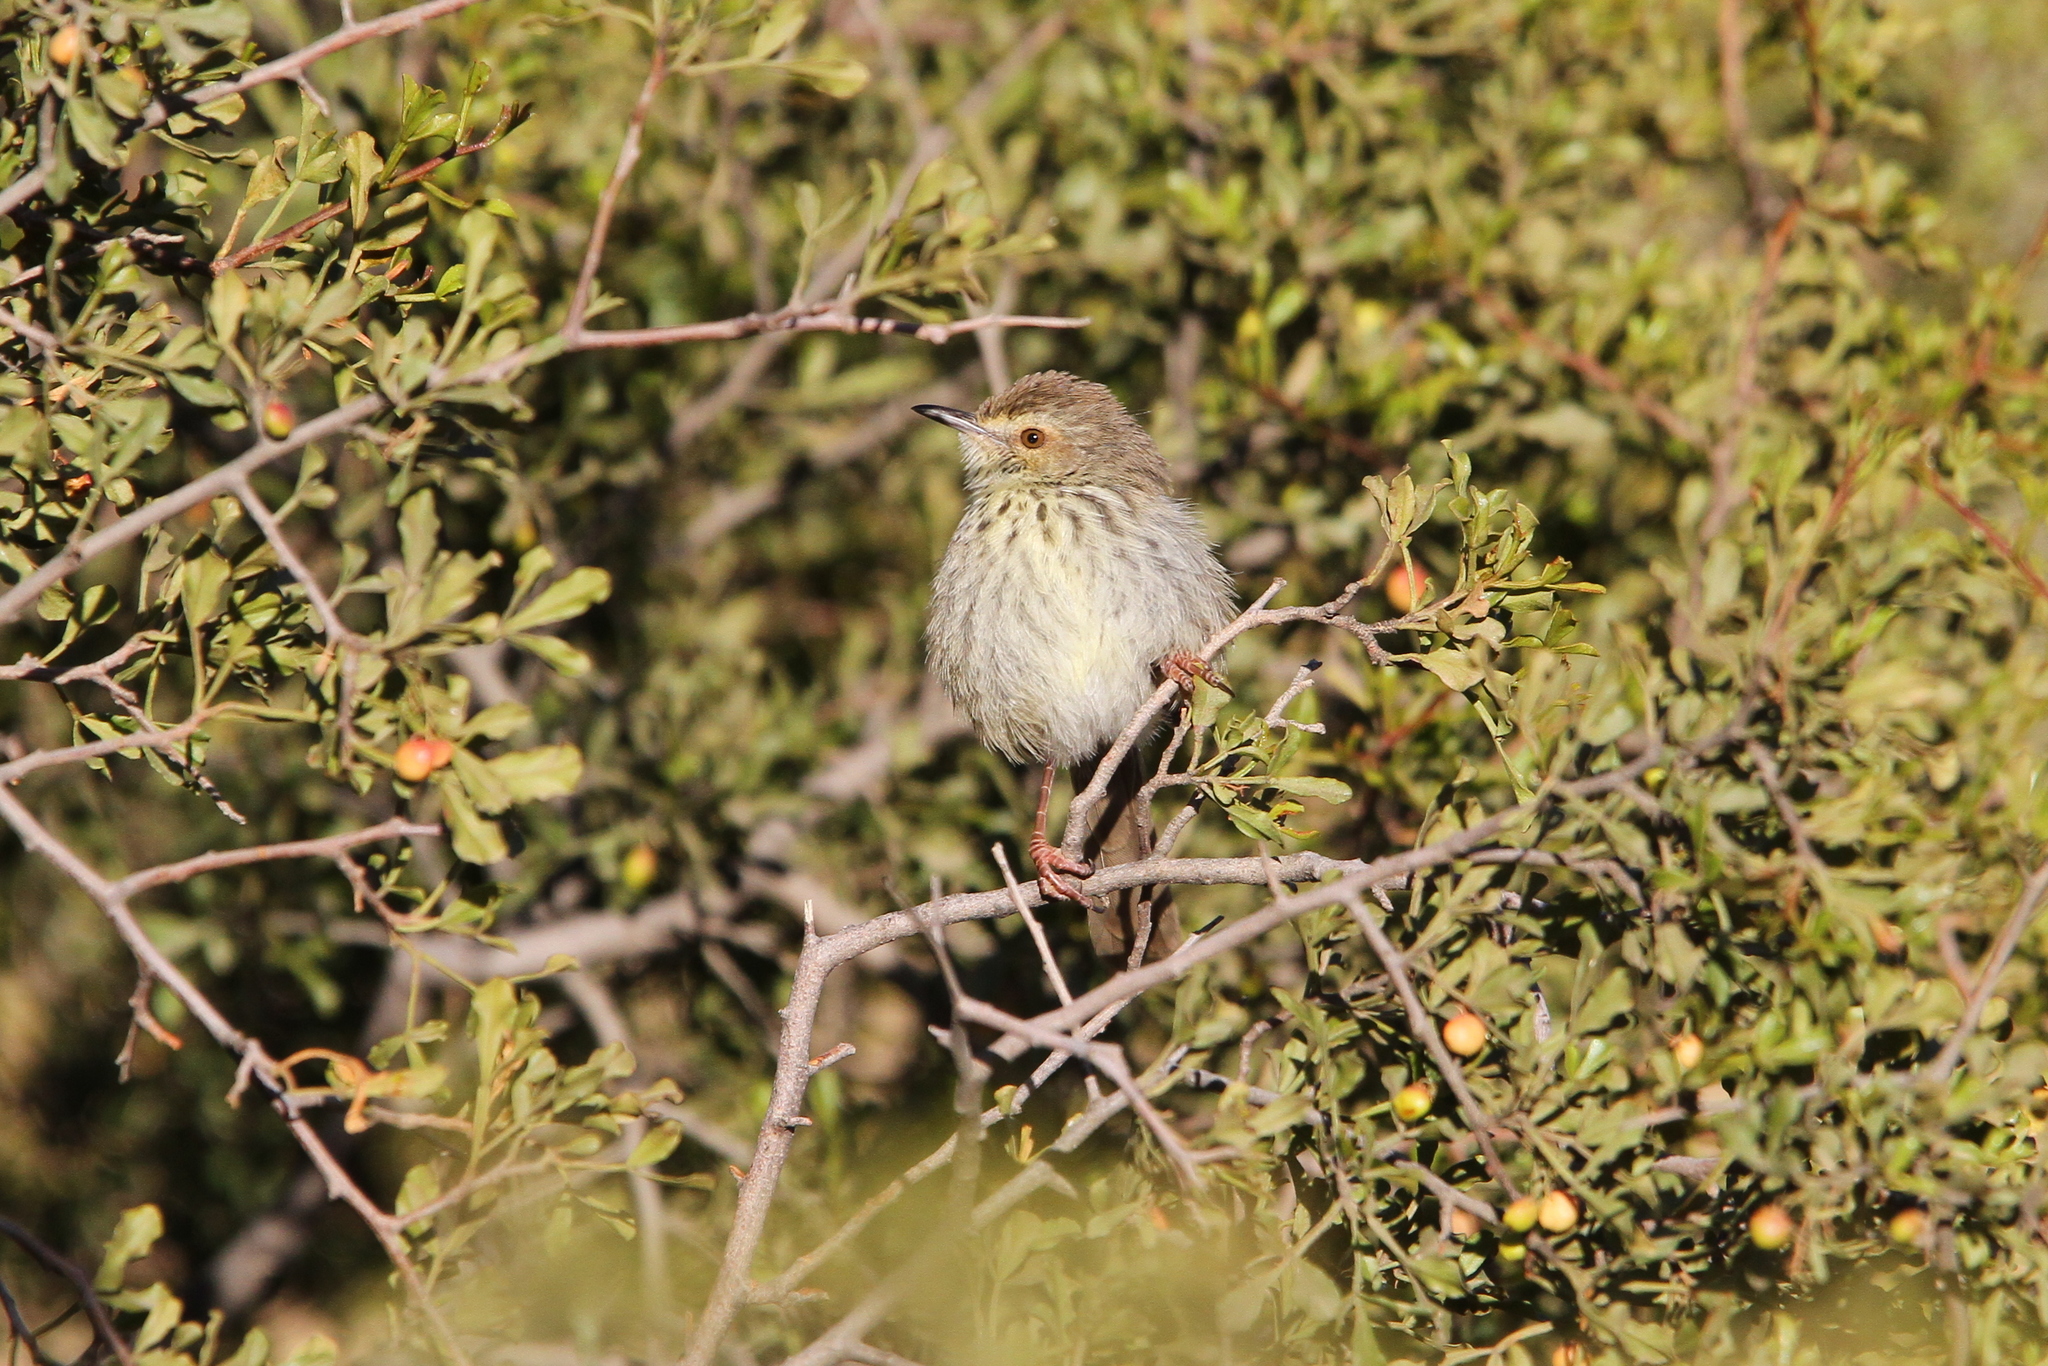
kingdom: Animalia
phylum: Chordata
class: Aves
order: Passeriformes
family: Cisticolidae
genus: Prinia
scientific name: Prinia maculosa
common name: Karoo prinia
